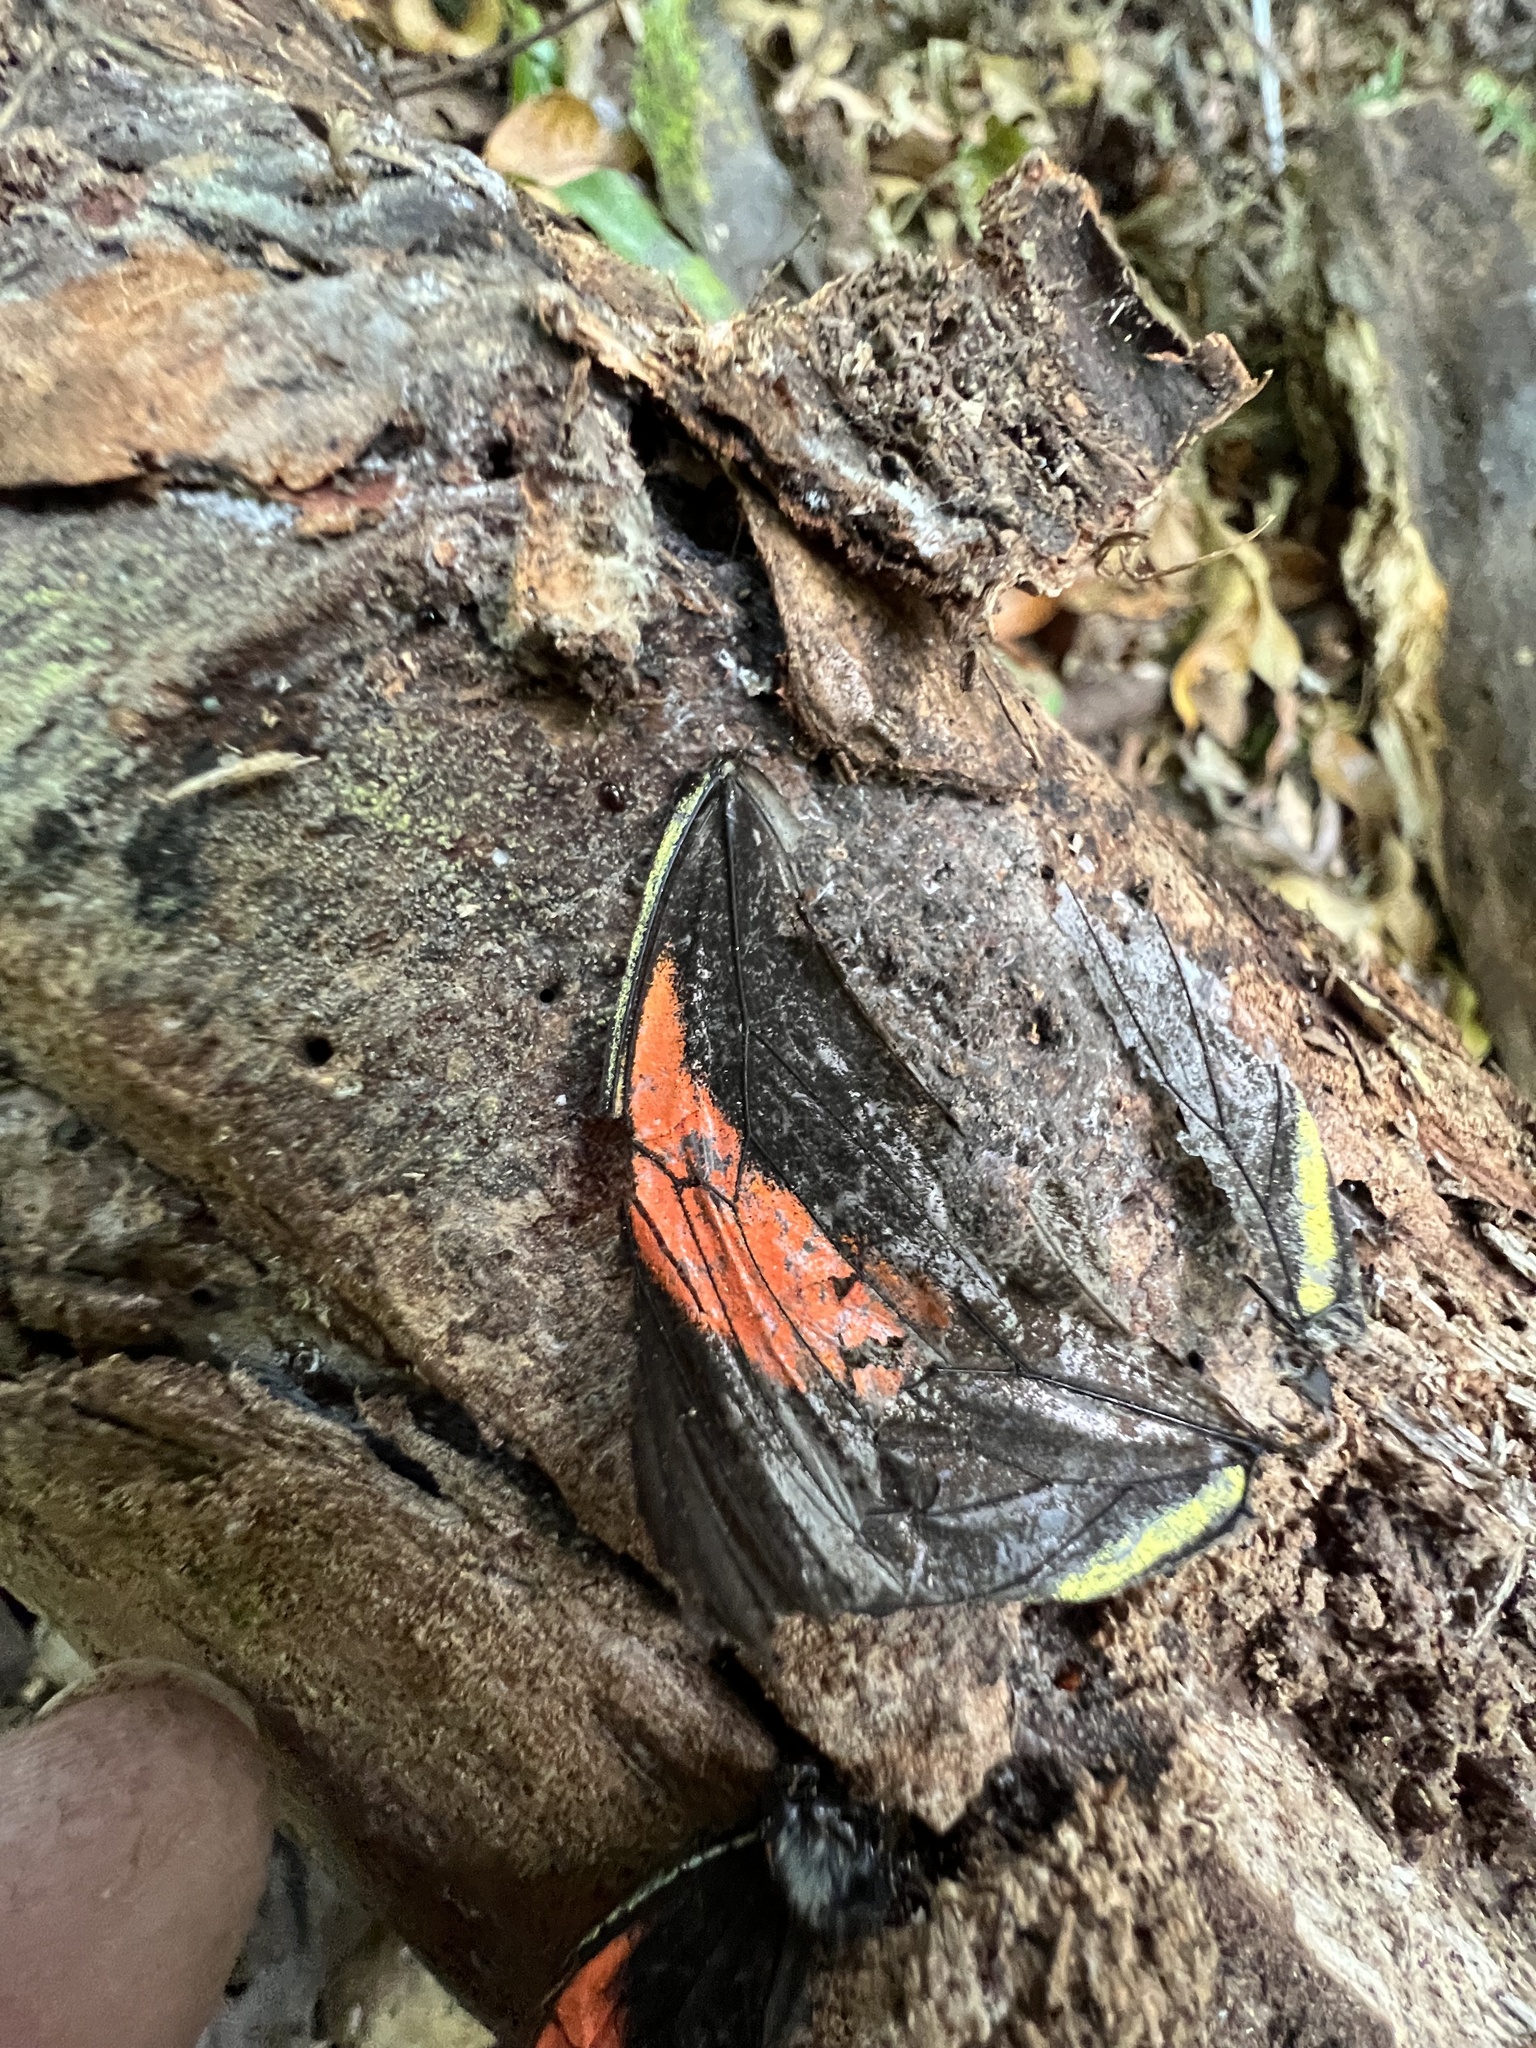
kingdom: Animalia
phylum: Arthropoda
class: Insecta
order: Lepidoptera
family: Pieridae
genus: Pereute
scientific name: Pereute charops
